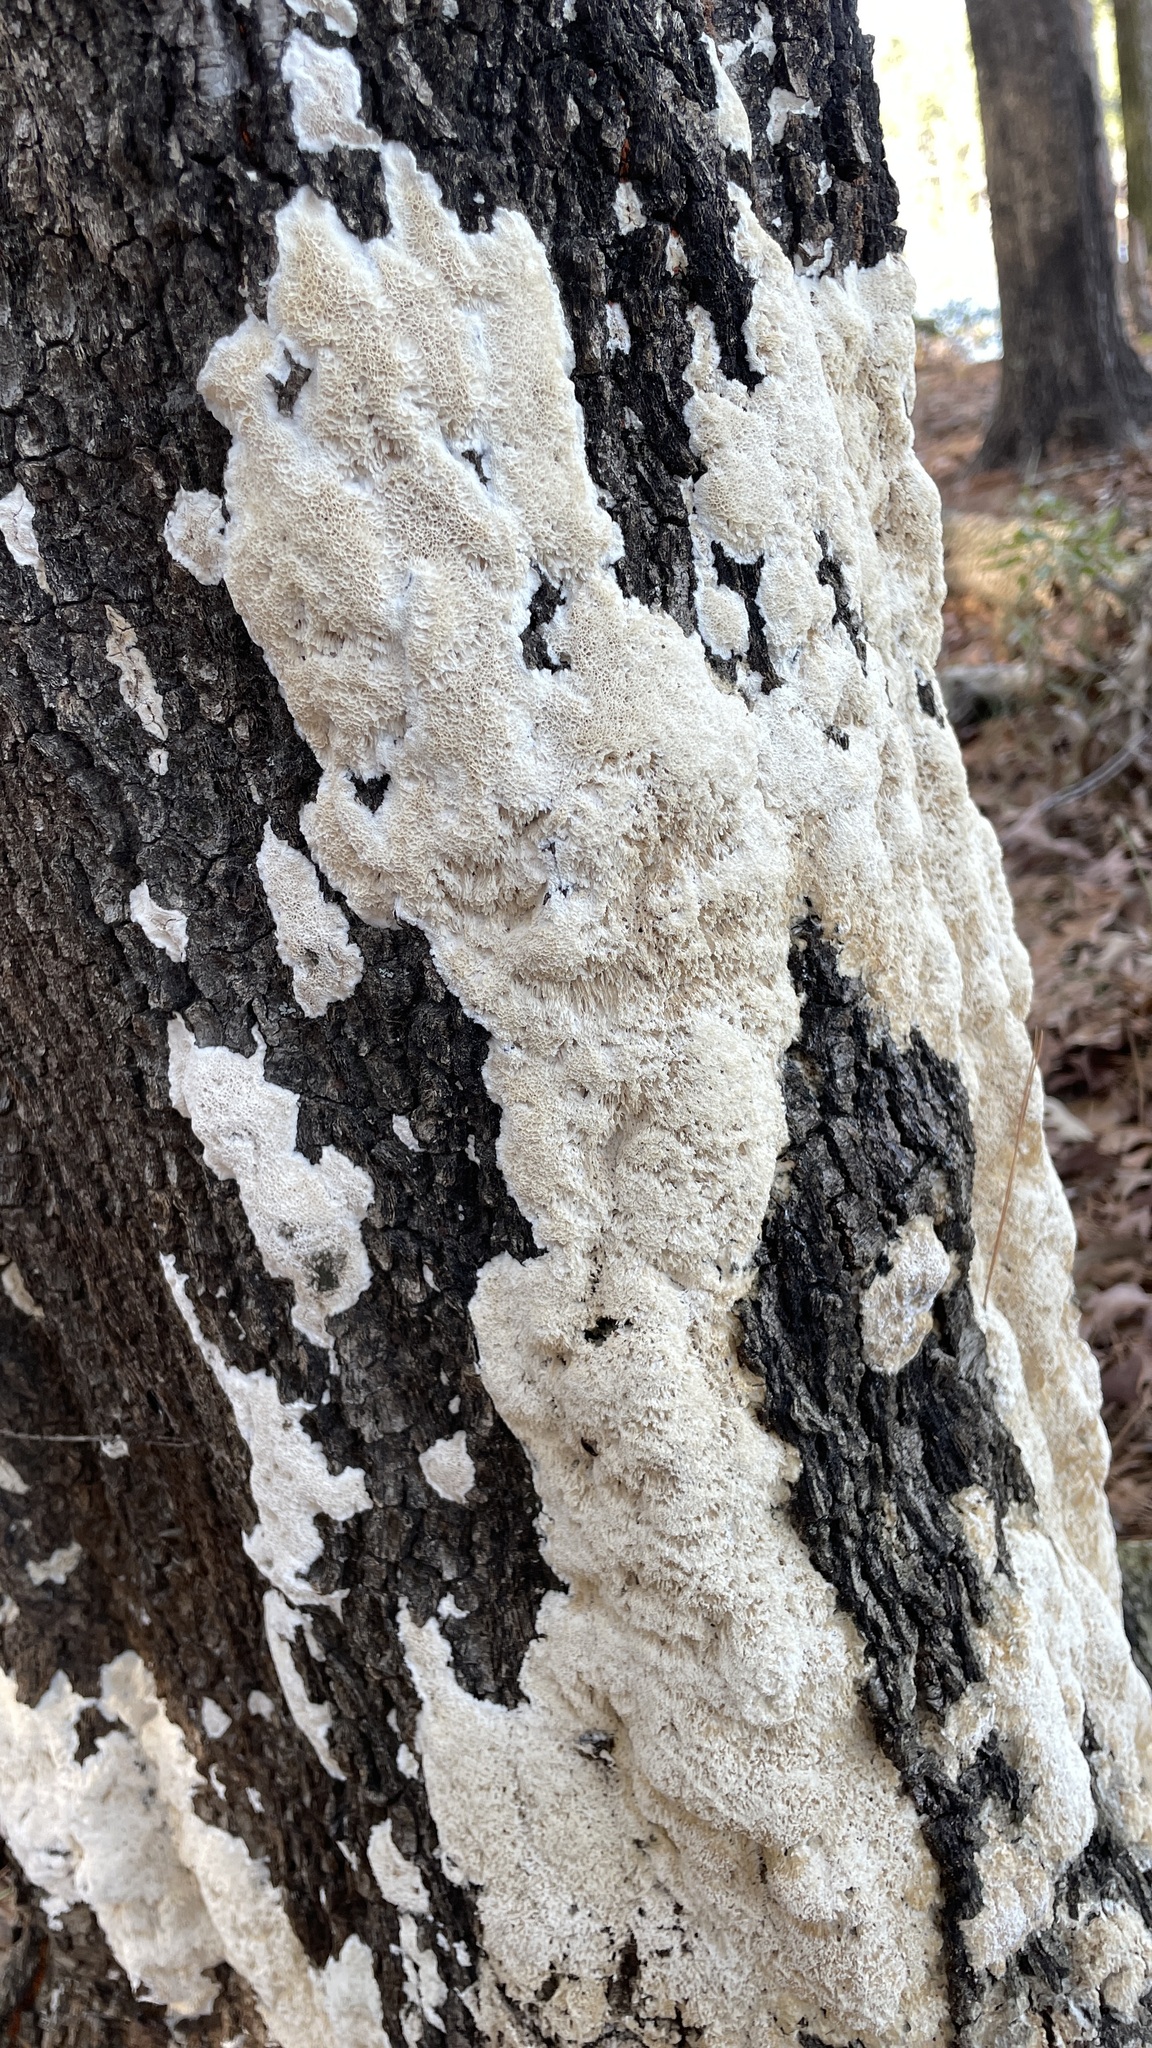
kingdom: Fungi
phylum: Basidiomycota
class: Agaricomycetes
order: Polyporales
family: Irpicaceae
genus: Irpex
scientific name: Irpex lacteus
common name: Milk-white toothed polypore
